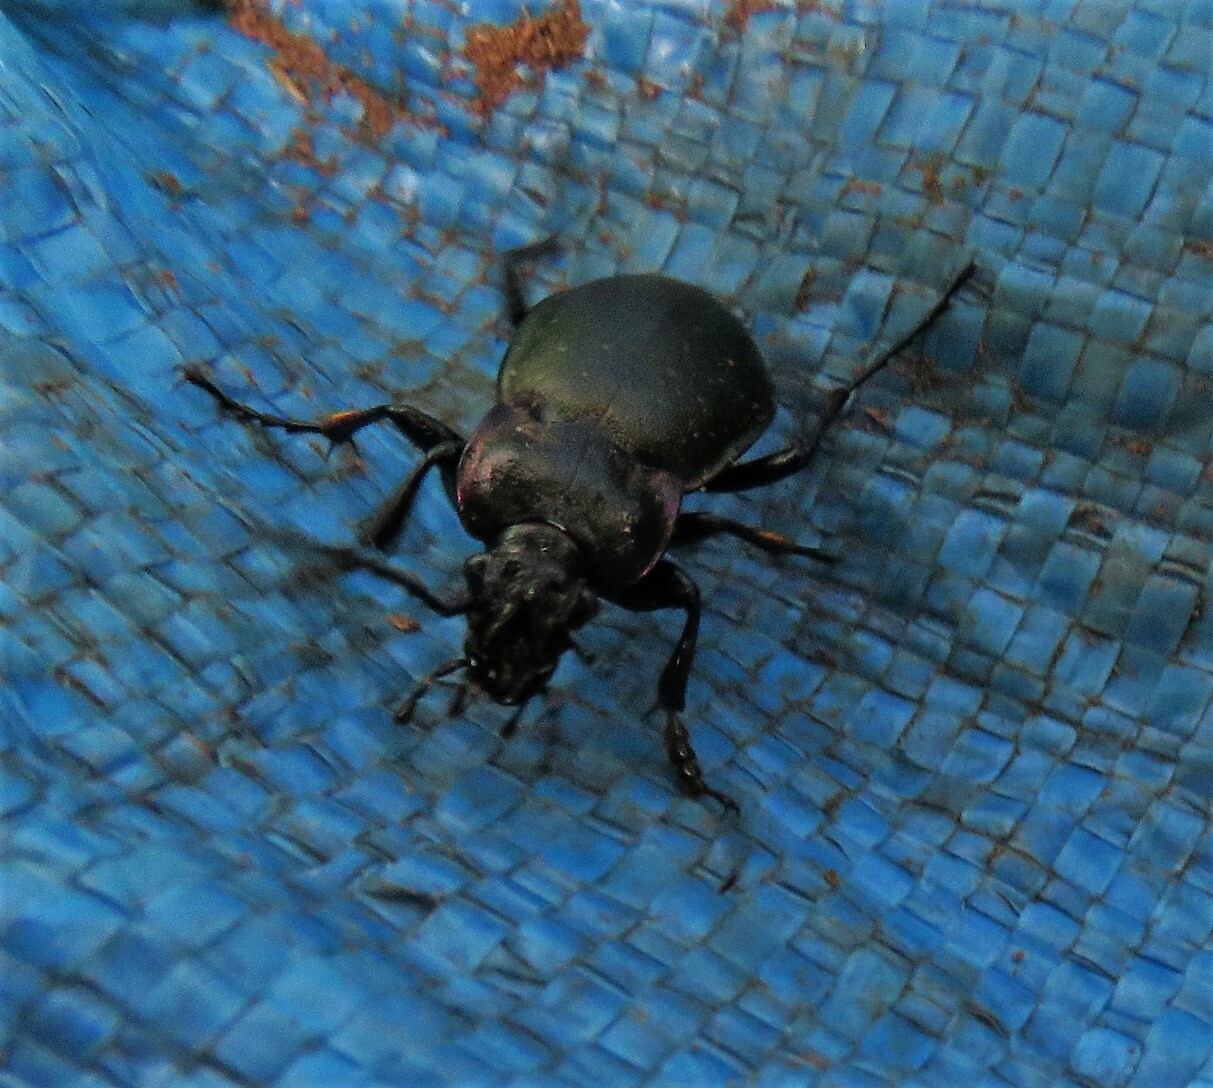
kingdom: Animalia
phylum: Arthropoda
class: Insecta
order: Coleoptera
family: Carabidae
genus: Carabus
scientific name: Carabus nemoralis
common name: European ground beetle
